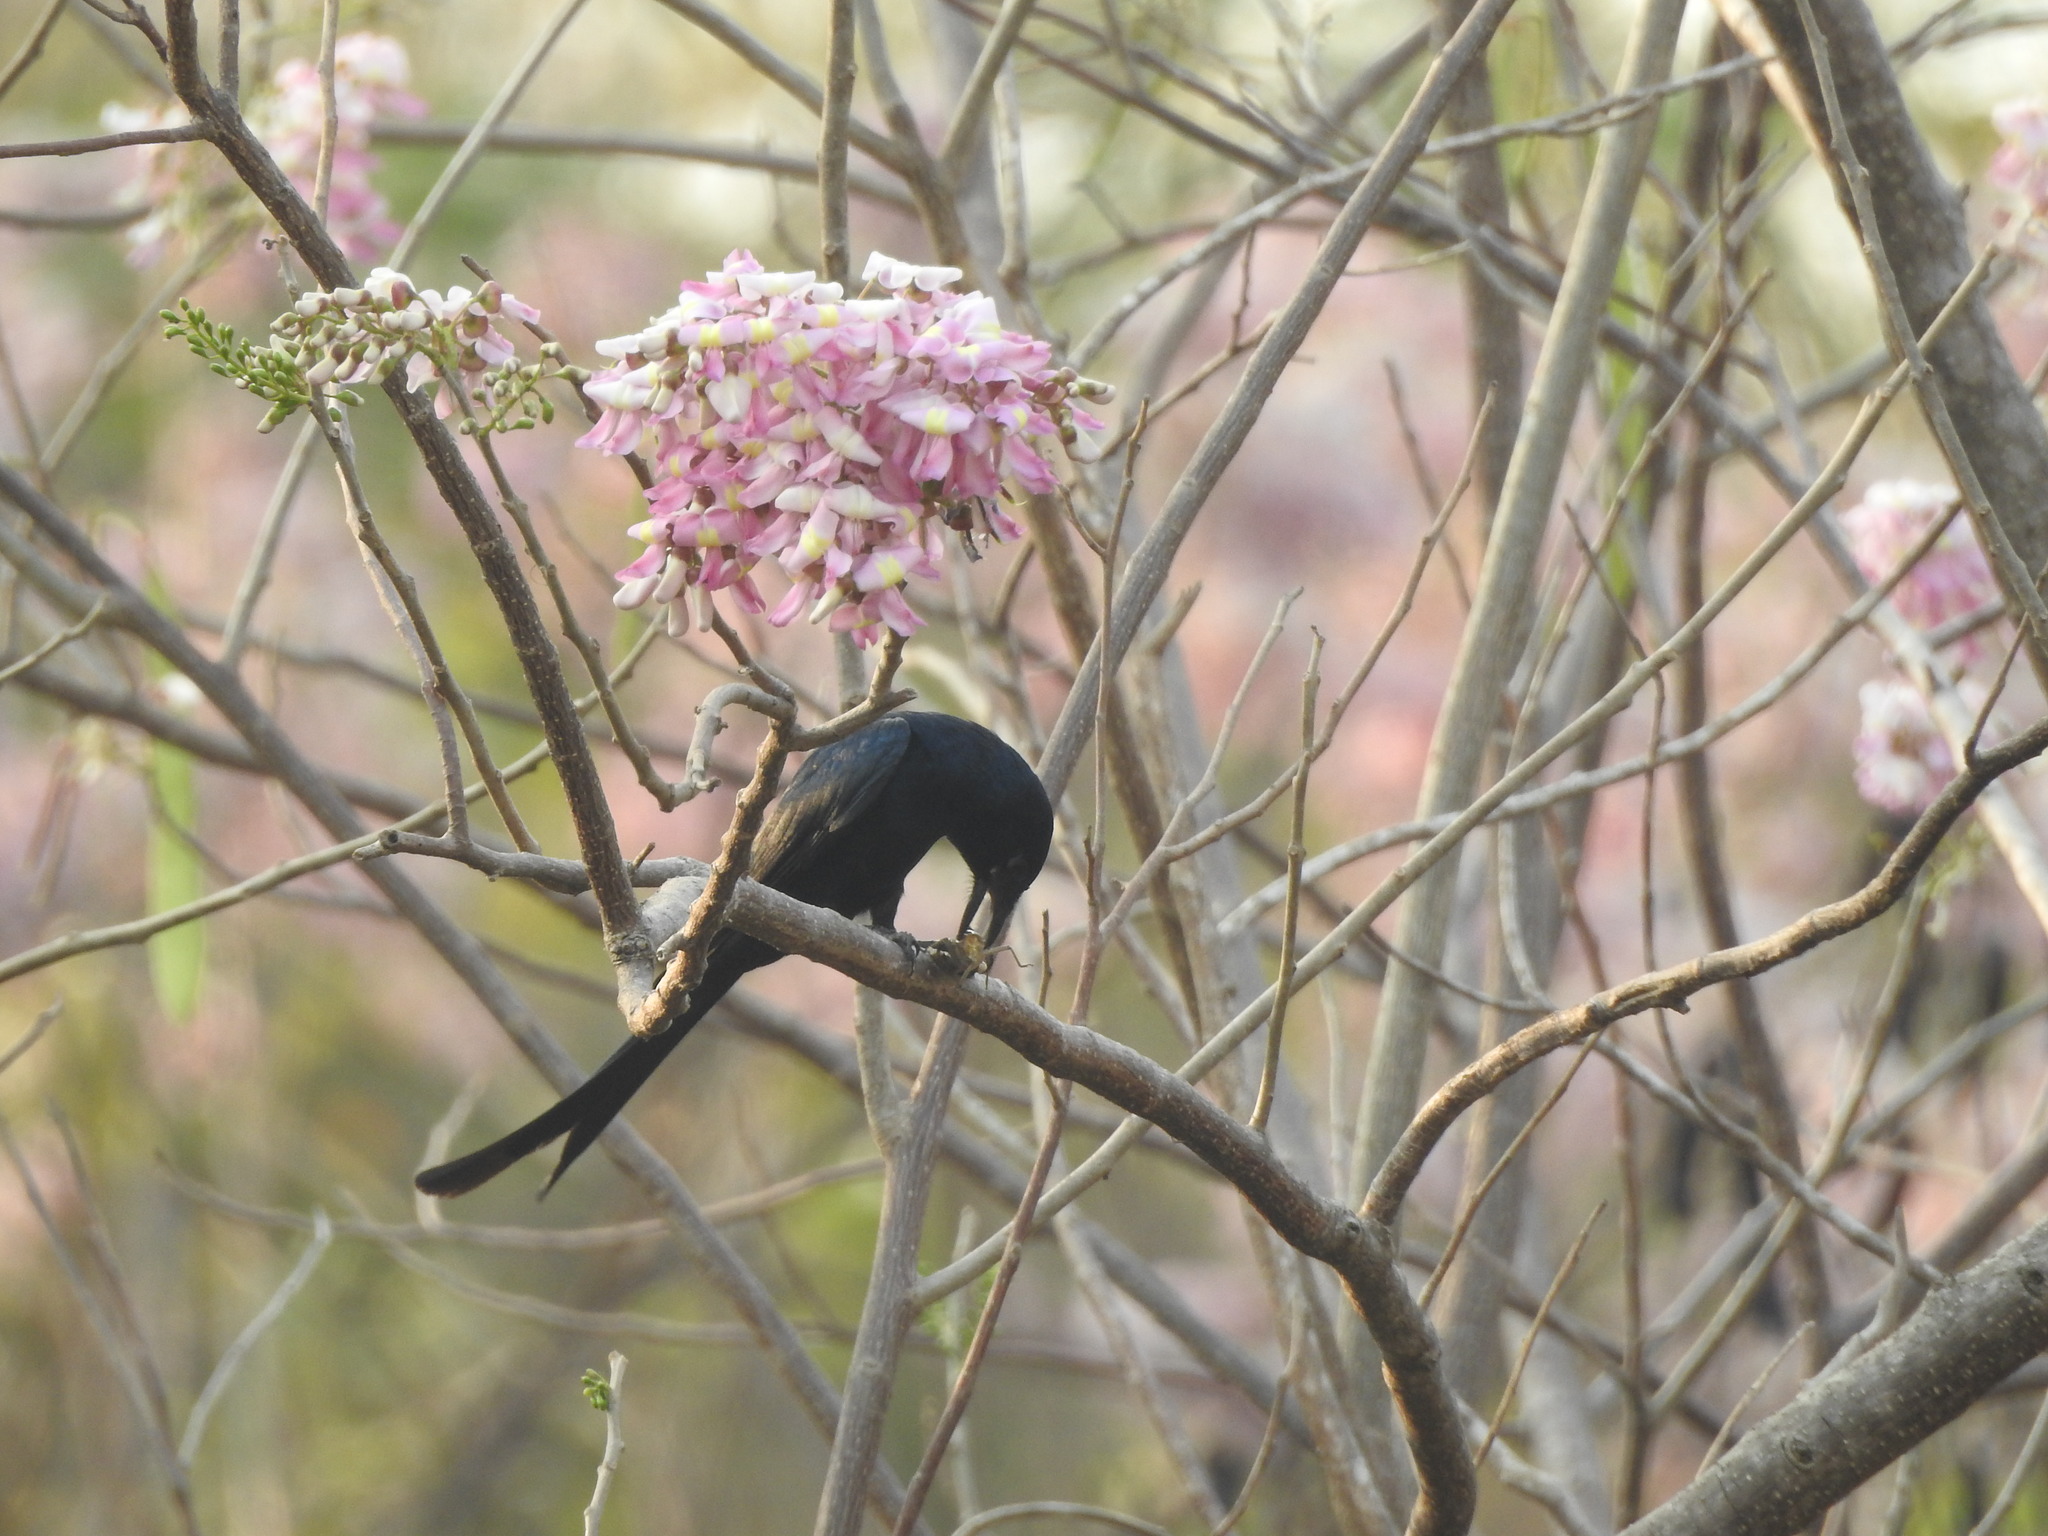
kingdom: Animalia
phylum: Chordata
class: Aves
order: Passeriformes
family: Dicruridae
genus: Dicrurus
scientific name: Dicrurus macrocercus
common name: Black drongo
